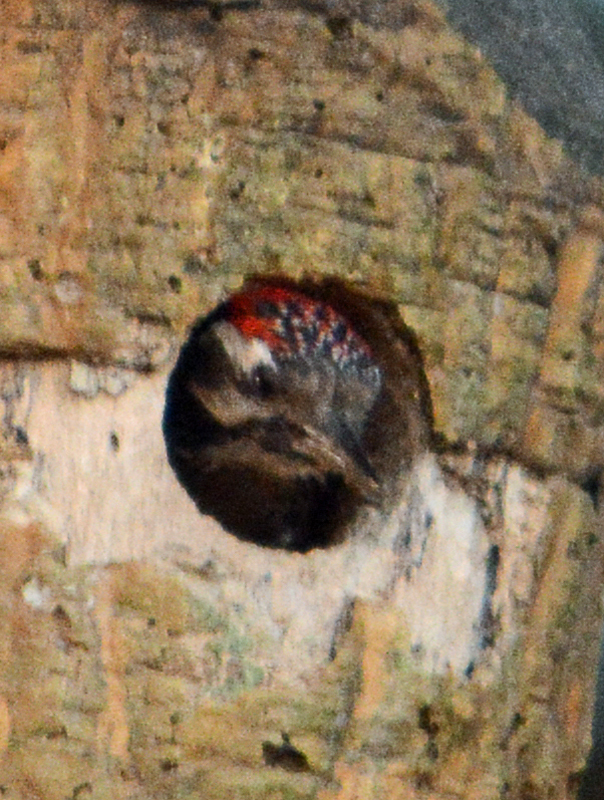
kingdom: Animalia
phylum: Chordata
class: Aves
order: Piciformes
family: Picidae
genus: Dryobates
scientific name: Dryobates scalaris
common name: Ladder-backed woodpecker
